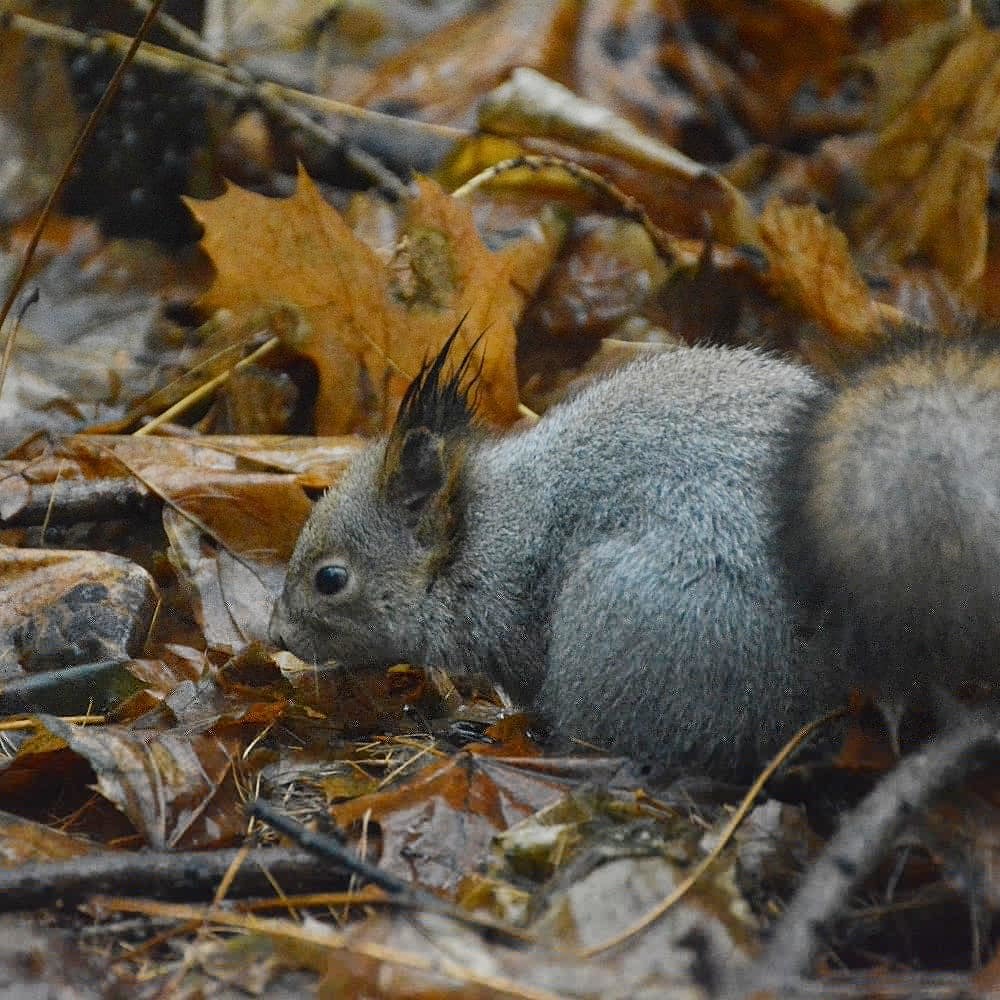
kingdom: Animalia
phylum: Chordata
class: Mammalia
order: Rodentia
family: Sciuridae
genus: Sciurus
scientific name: Sciurus vulgaris
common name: Eurasian red squirrel
